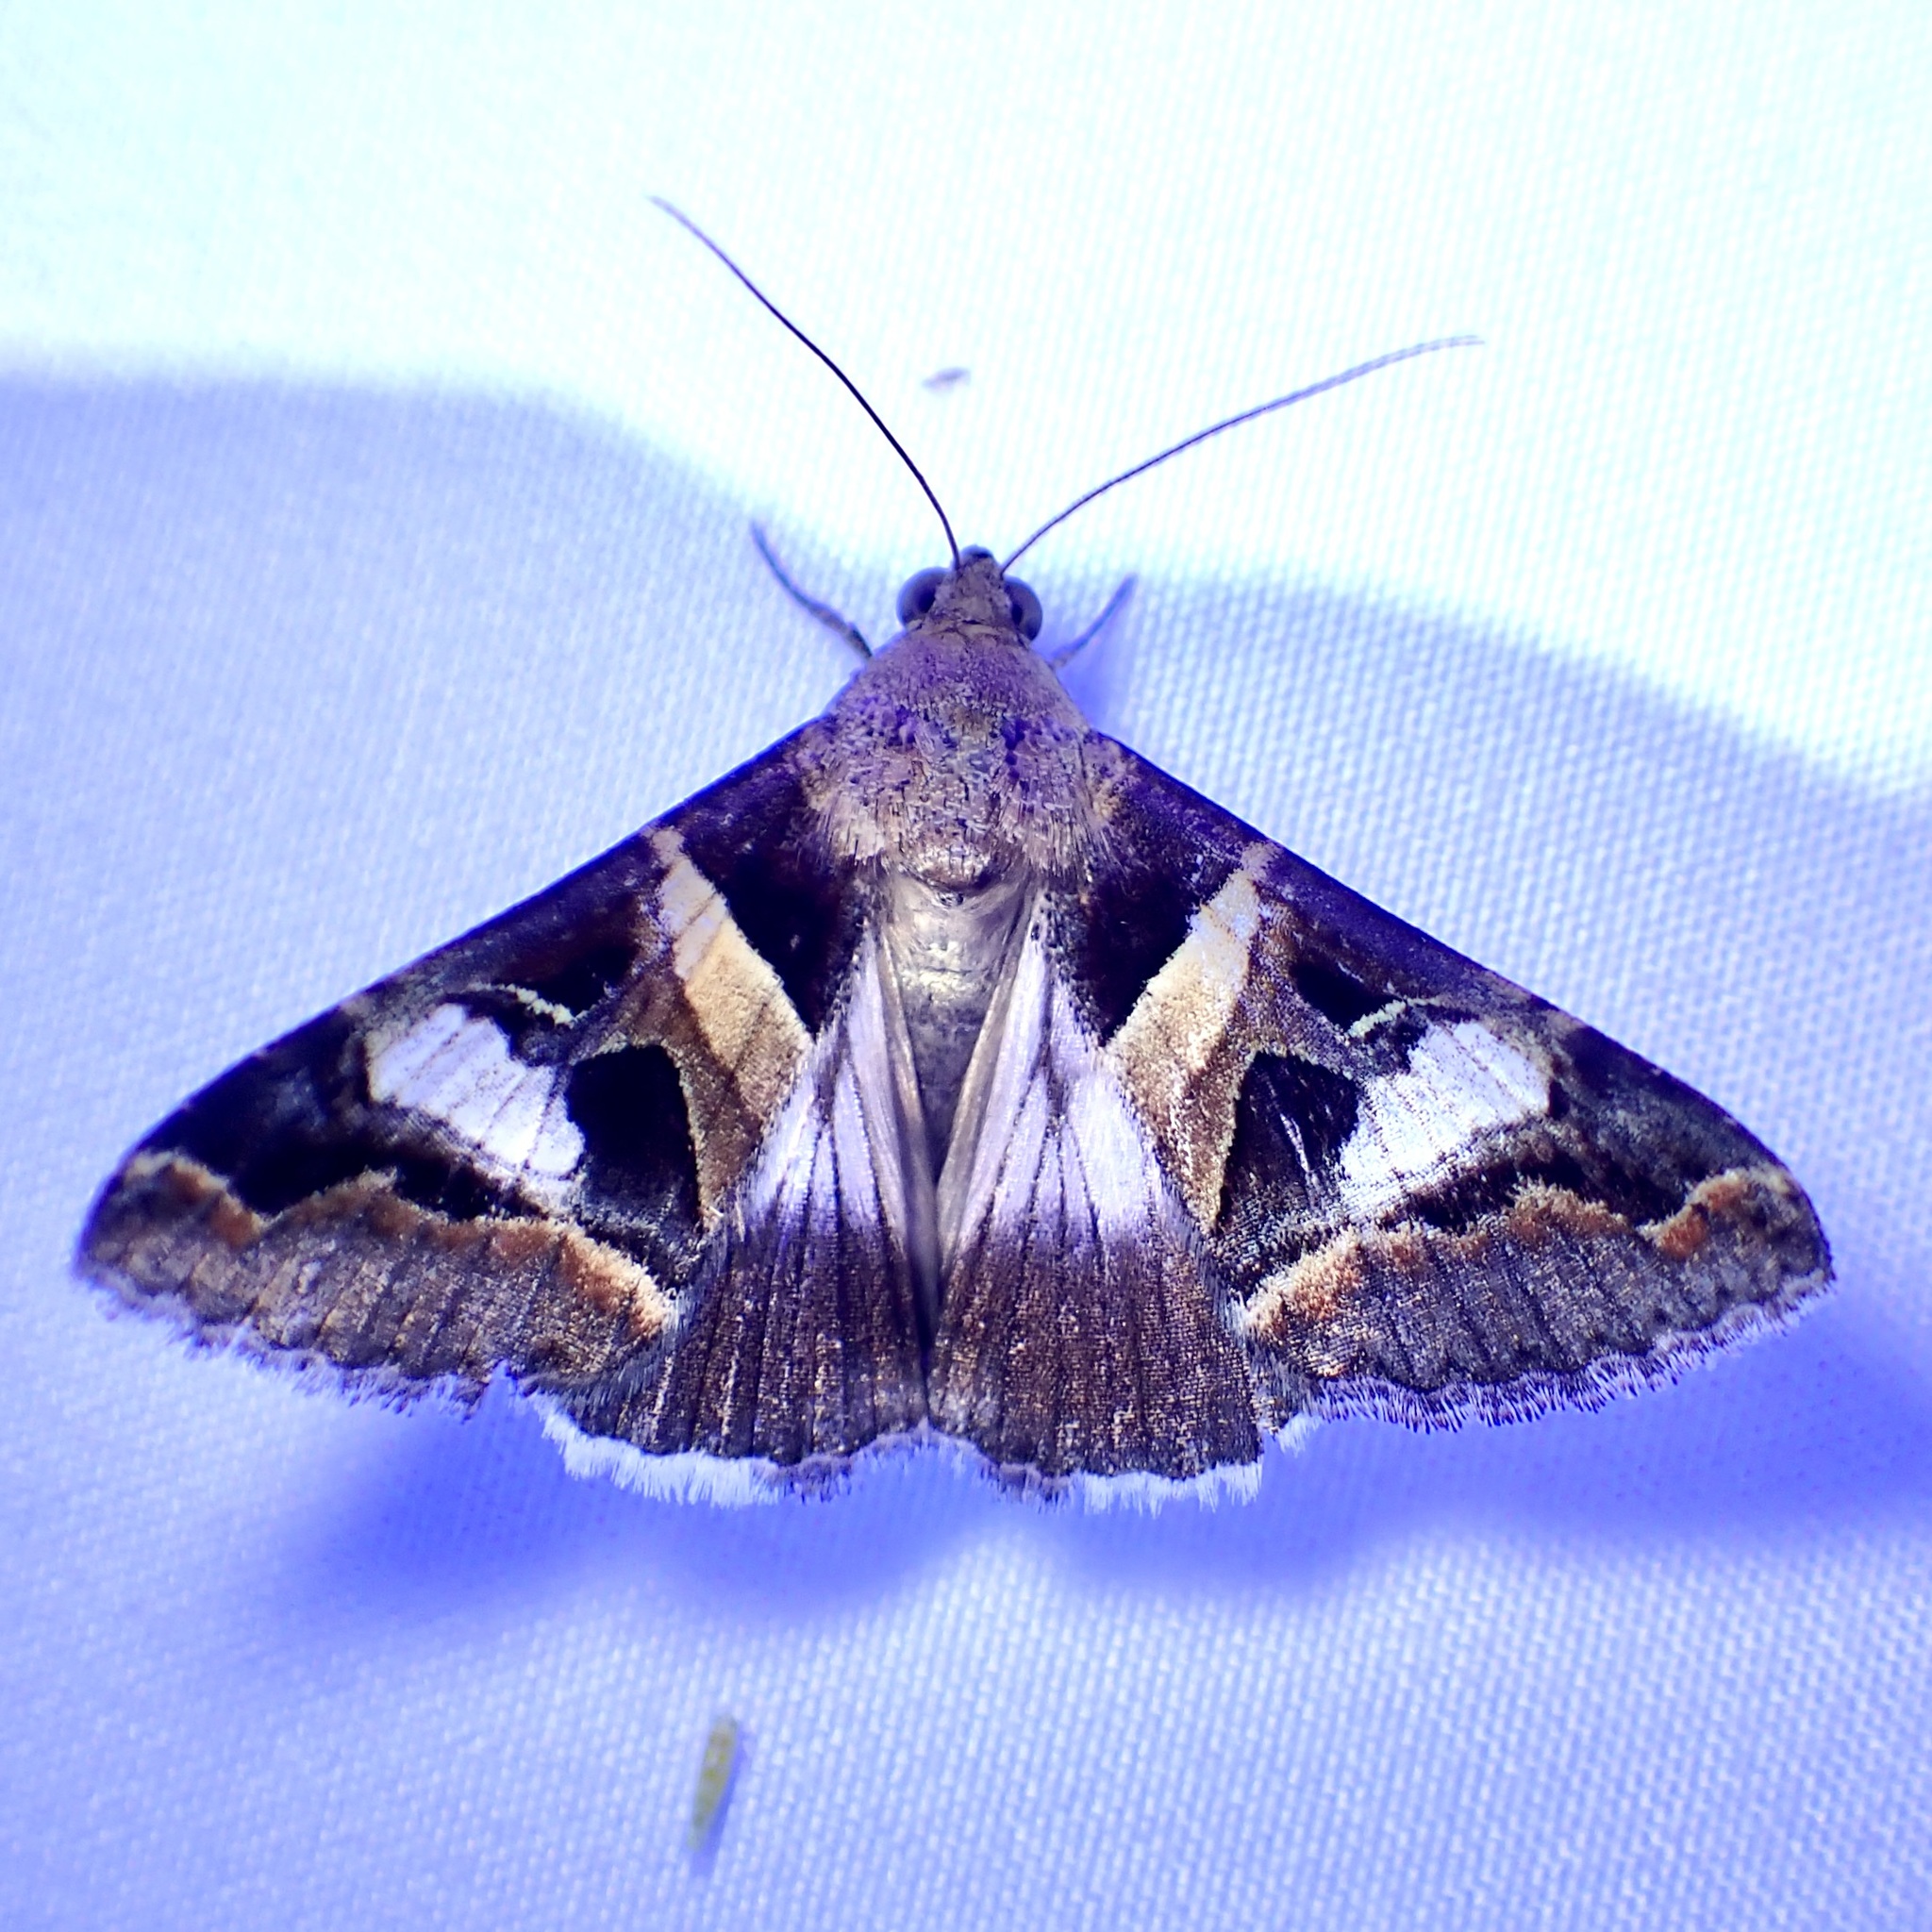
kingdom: Animalia
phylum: Arthropoda
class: Insecta
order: Lepidoptera
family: Erebidae
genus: Melipotis
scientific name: Melipotis perpendicularis
